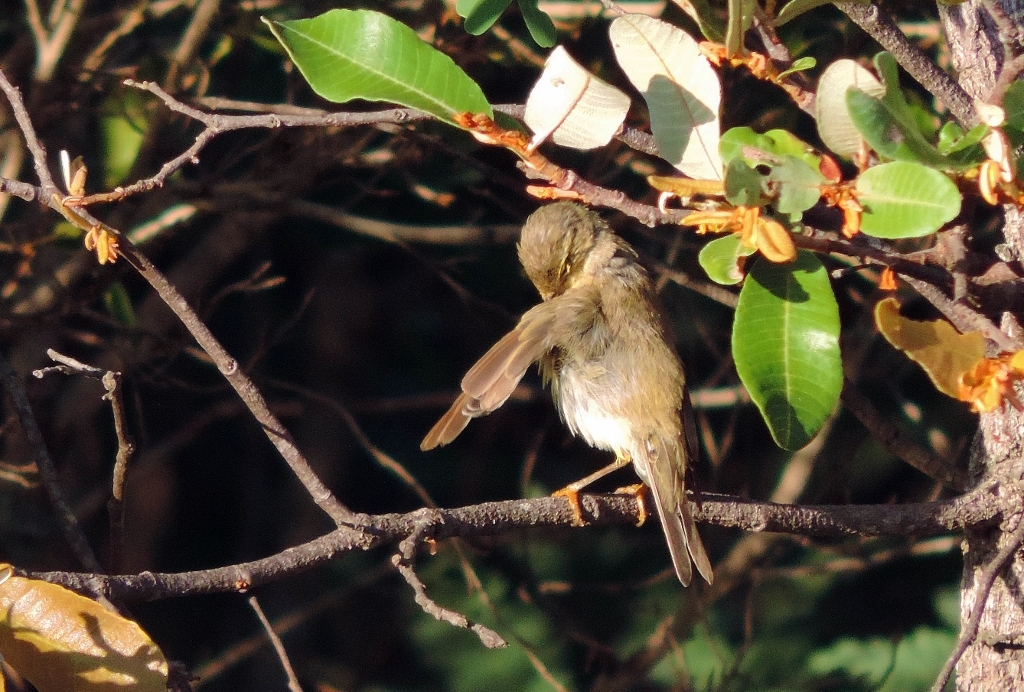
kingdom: Animalia
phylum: Chordata
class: Aves
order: Passeriformes
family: Phylloscopidae
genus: Phylloscopus
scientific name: Phylloscopus trochilus
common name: Willow warbler
